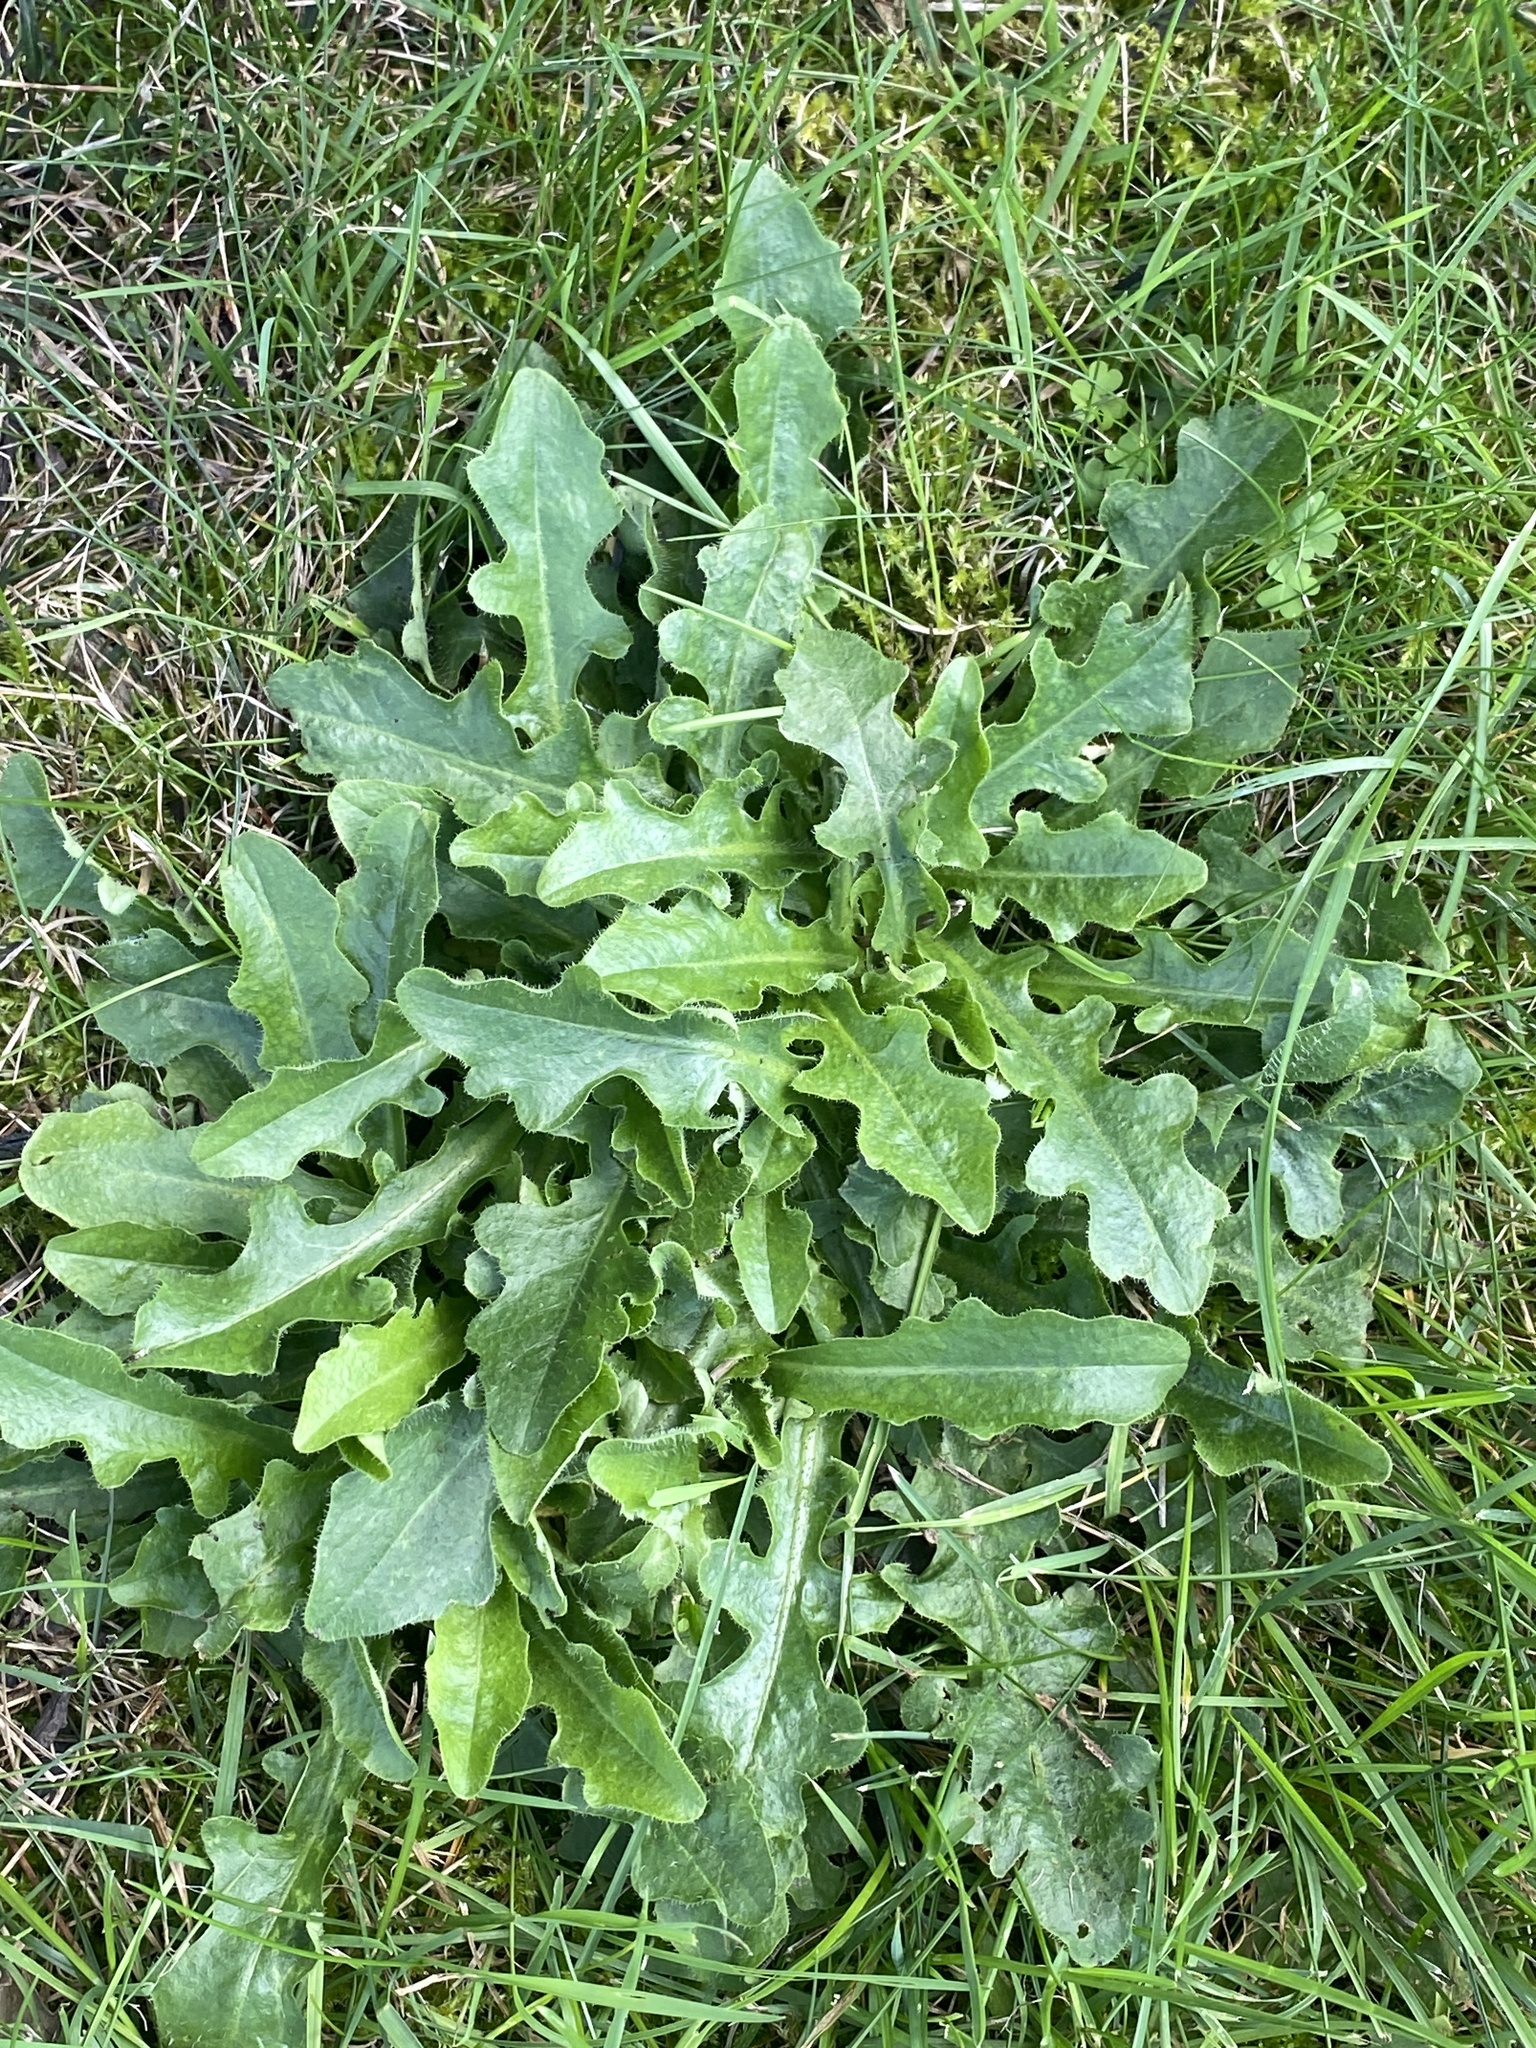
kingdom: Plantae
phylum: Tracheophyta
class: Magnoliopsida
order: Asterales
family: Asteraceae
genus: Hypochaeris
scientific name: Hypochaeris radicata
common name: Flatweed
